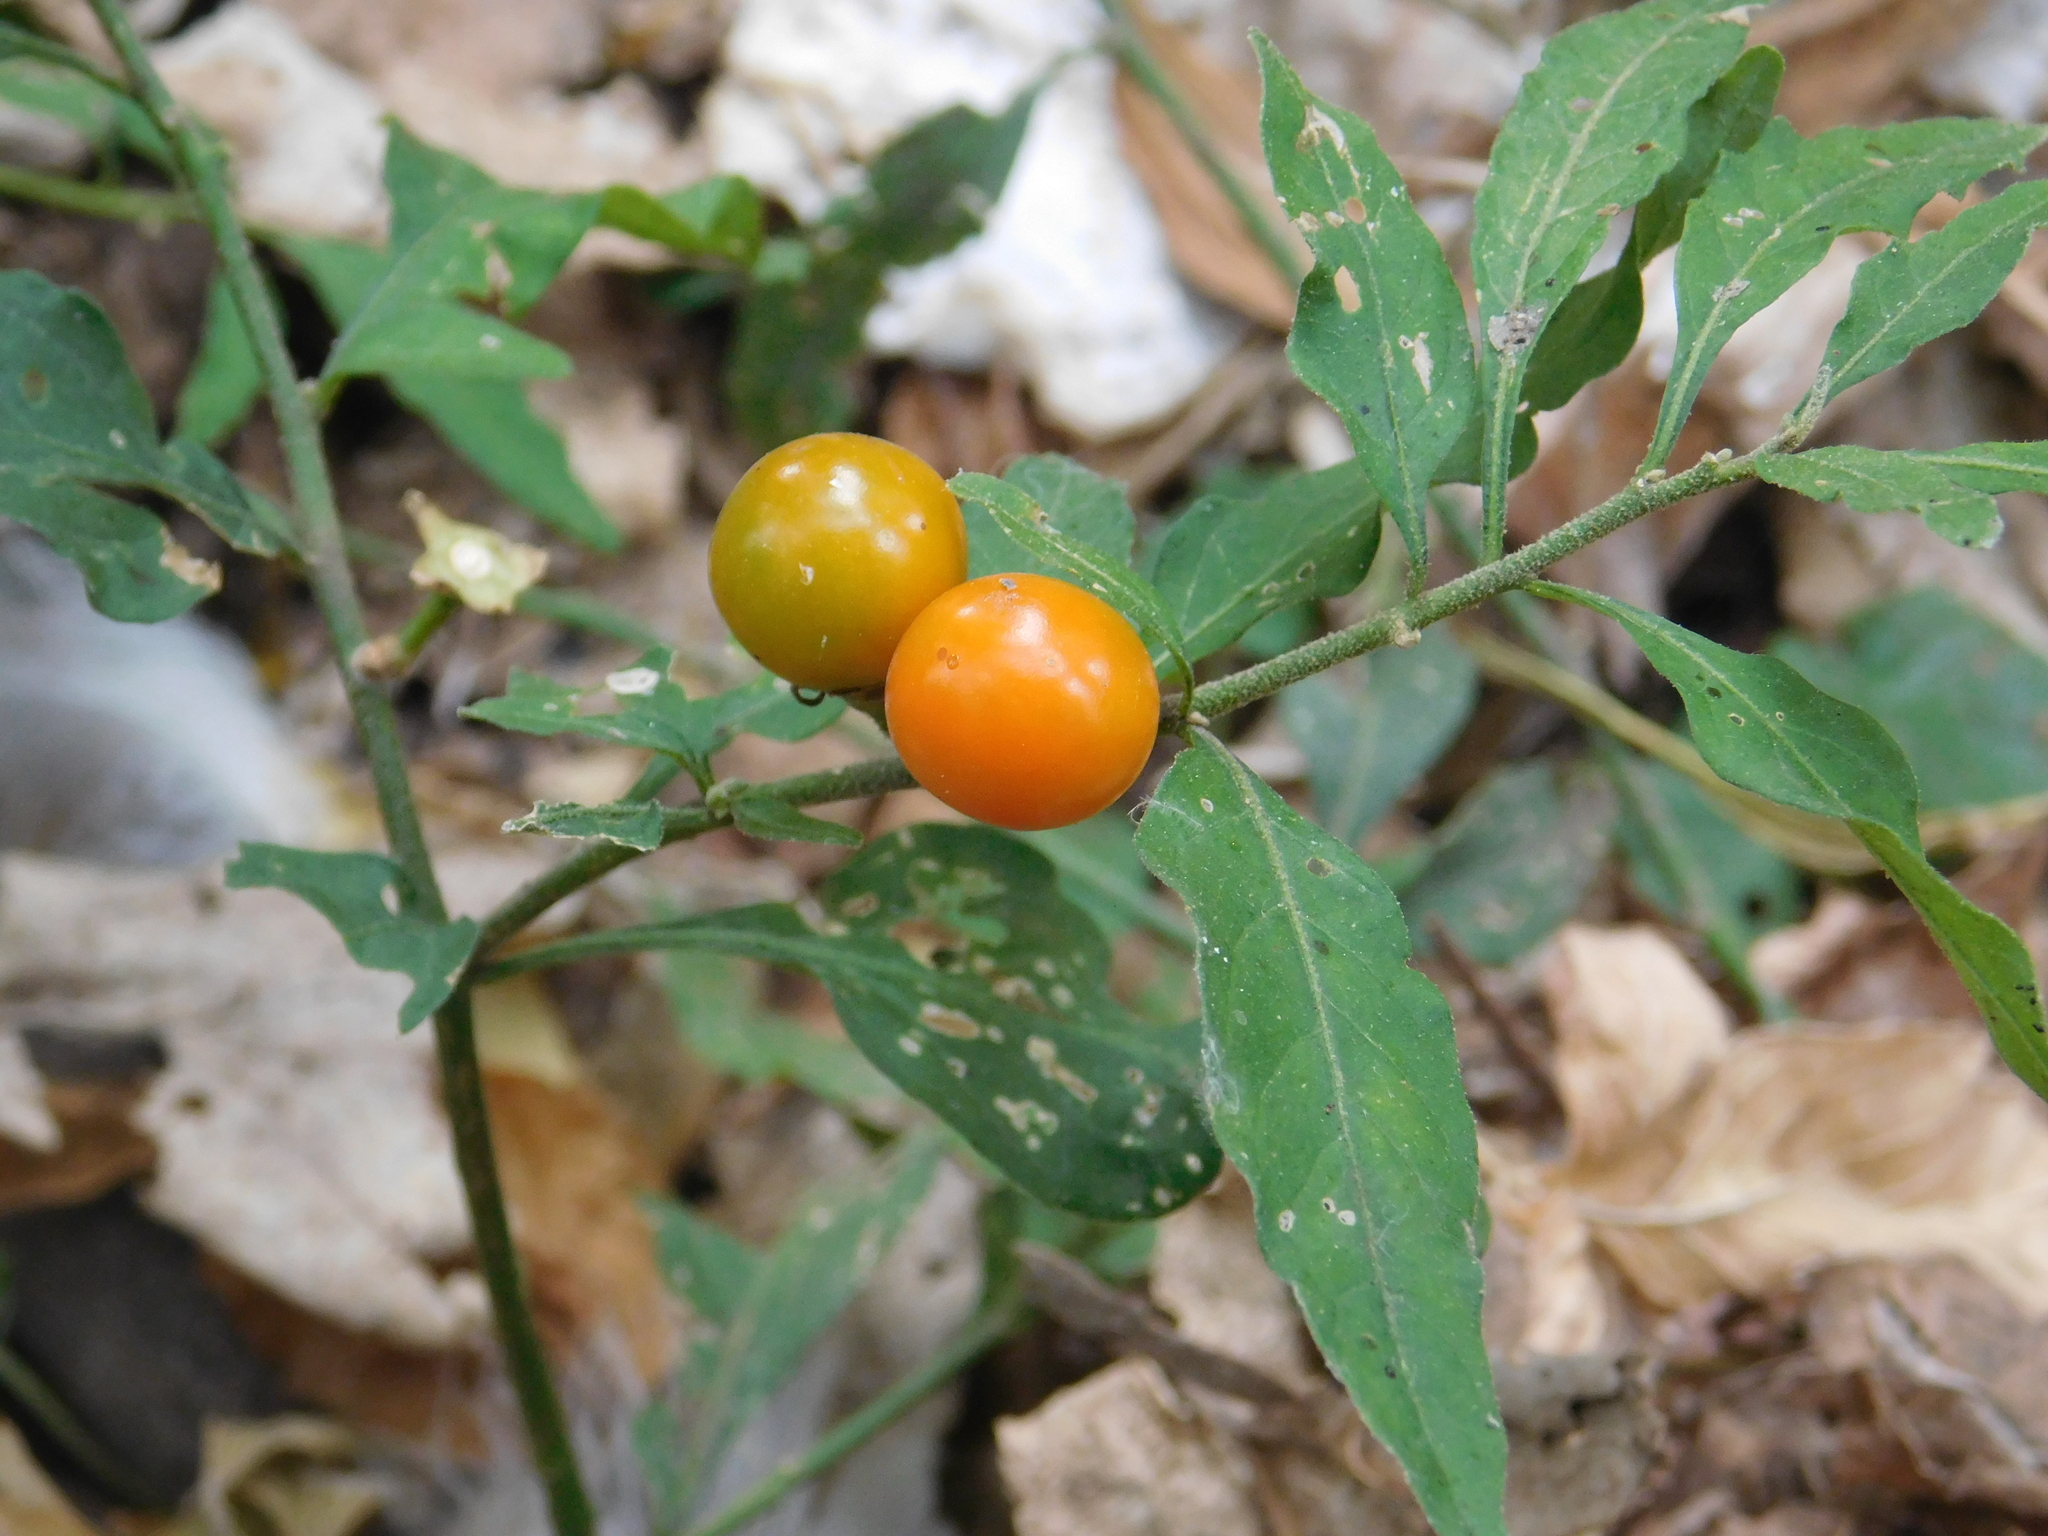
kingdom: Plantae
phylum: Tracheophyta
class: Magnoliopsida
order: Solanales
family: Solanaceae
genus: Solanum
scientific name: Solanum pseudocapsicum
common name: Jerusalem cherry
